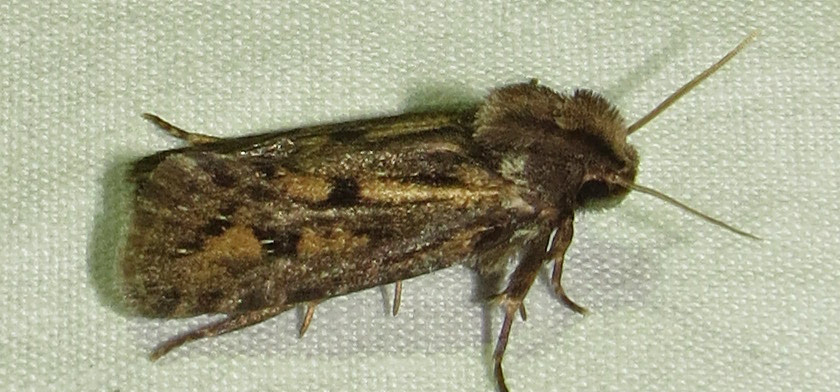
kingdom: Animalia
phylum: Arthropoda
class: Insecta
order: Lepidoptera
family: Tineidae
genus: Acrolophus
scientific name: Acrolophus popeanella
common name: Clemens' grass tubeworm moth
